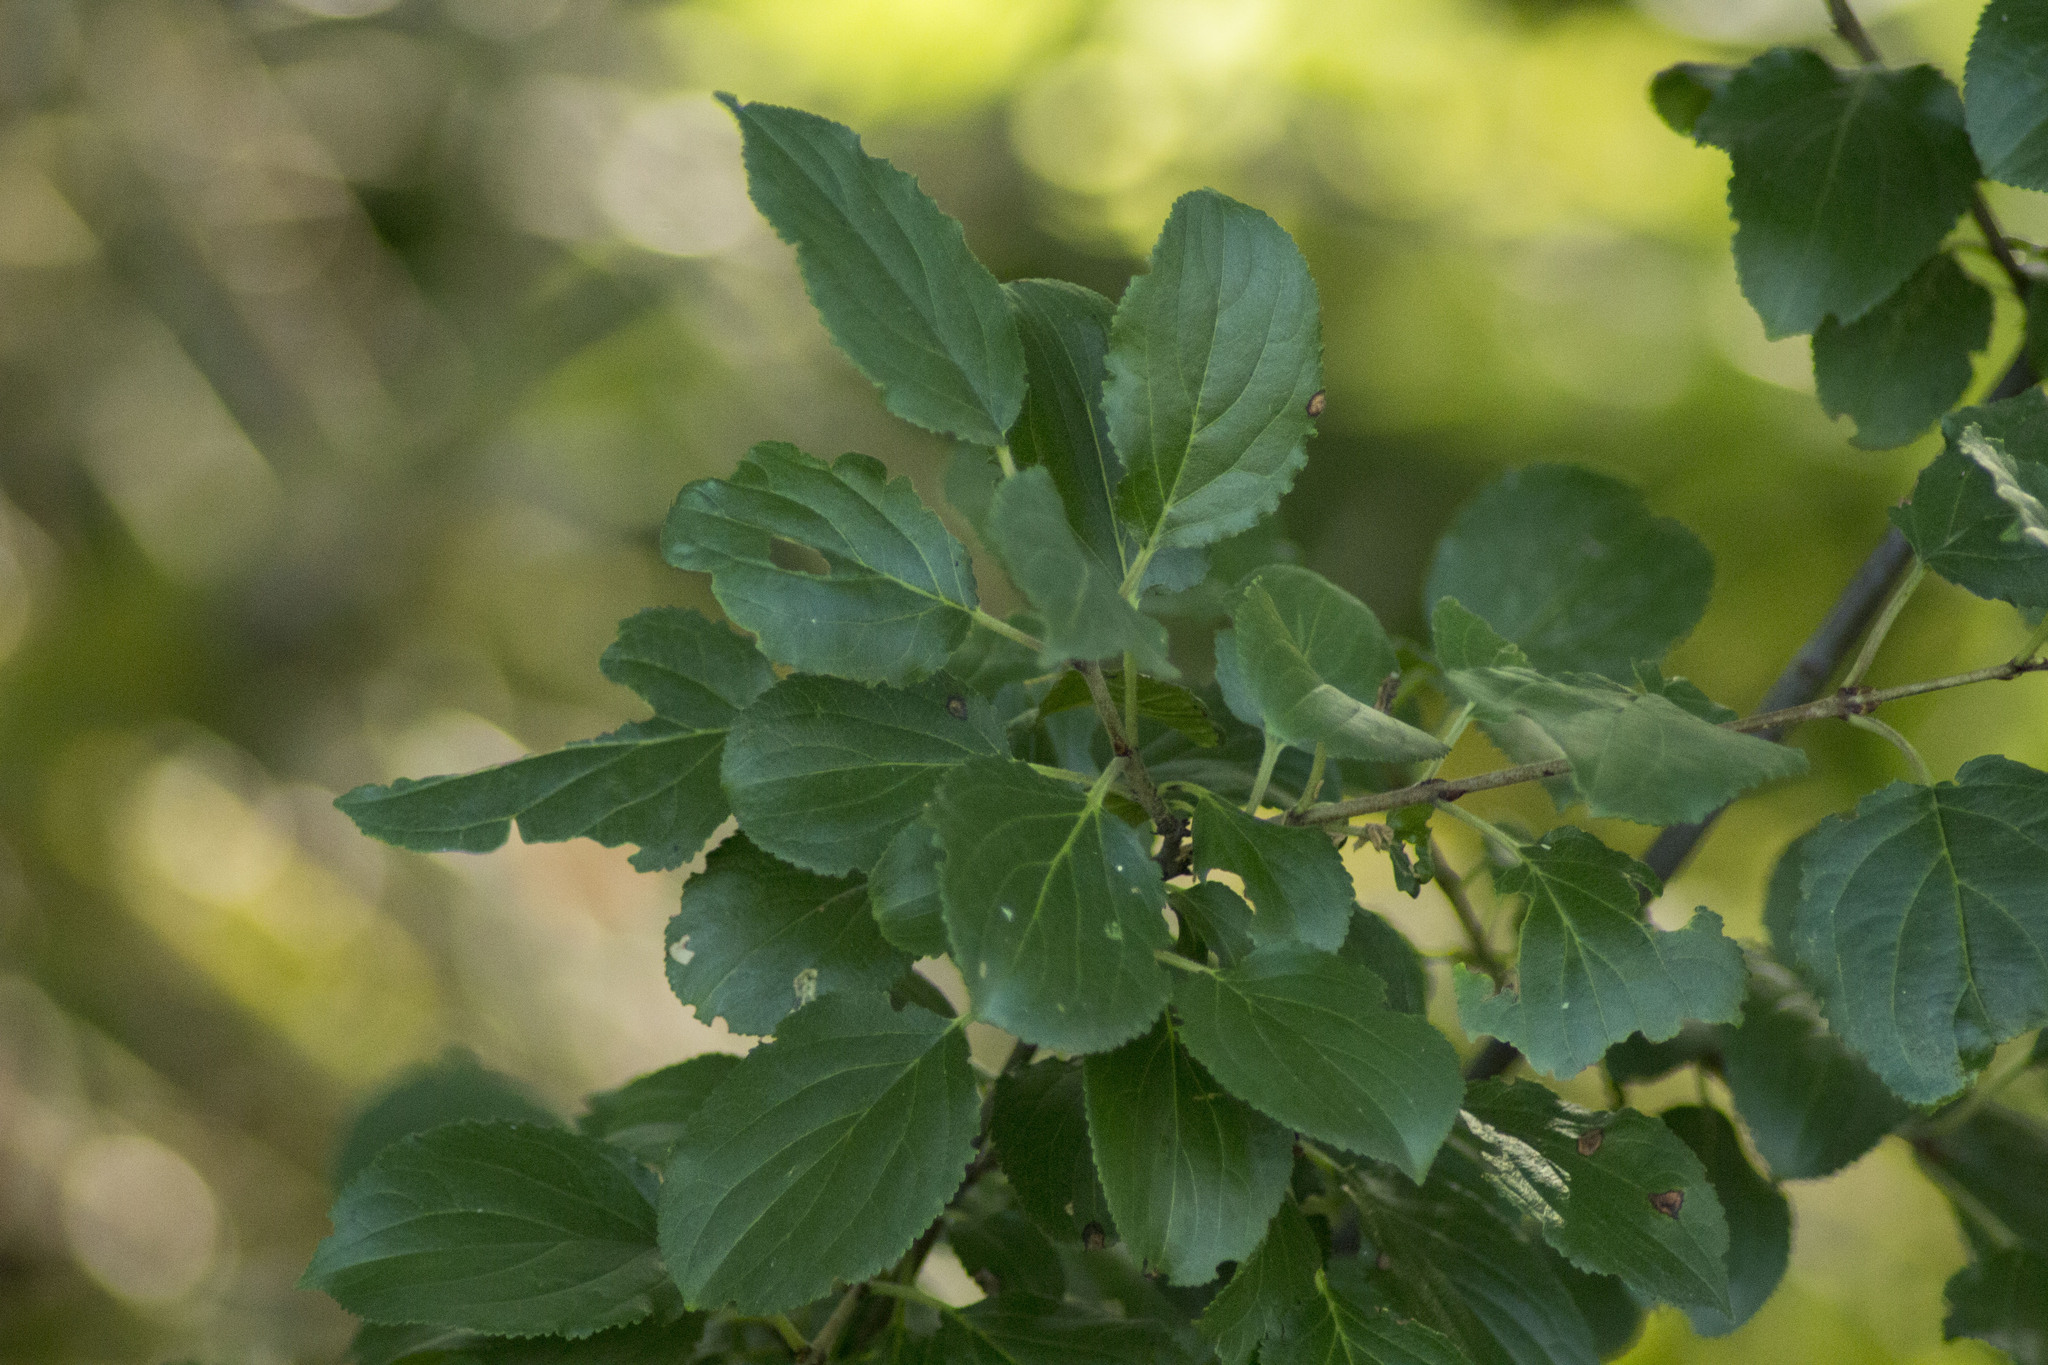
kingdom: Plantae
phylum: Tracheophyta
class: Magnoliopsida
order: Rosales
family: Rhamnaceae
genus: Rhamnus
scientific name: Rhamnus cathartica
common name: Common buckthorn
